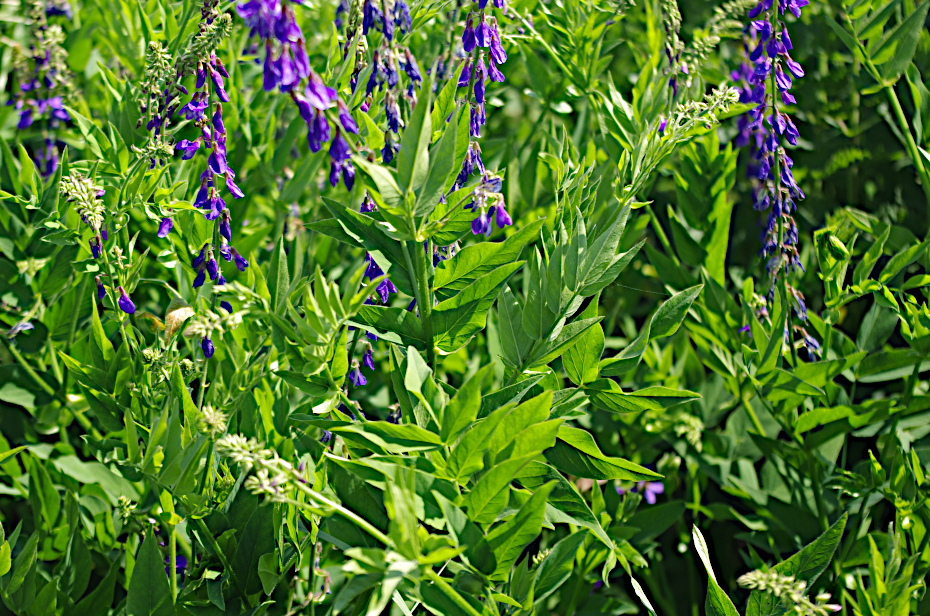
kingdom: Plantae
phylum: Tracheophyta
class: Magnoliopsida
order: Fabales
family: Fabaceae
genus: Galega
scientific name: Galega orientalis
